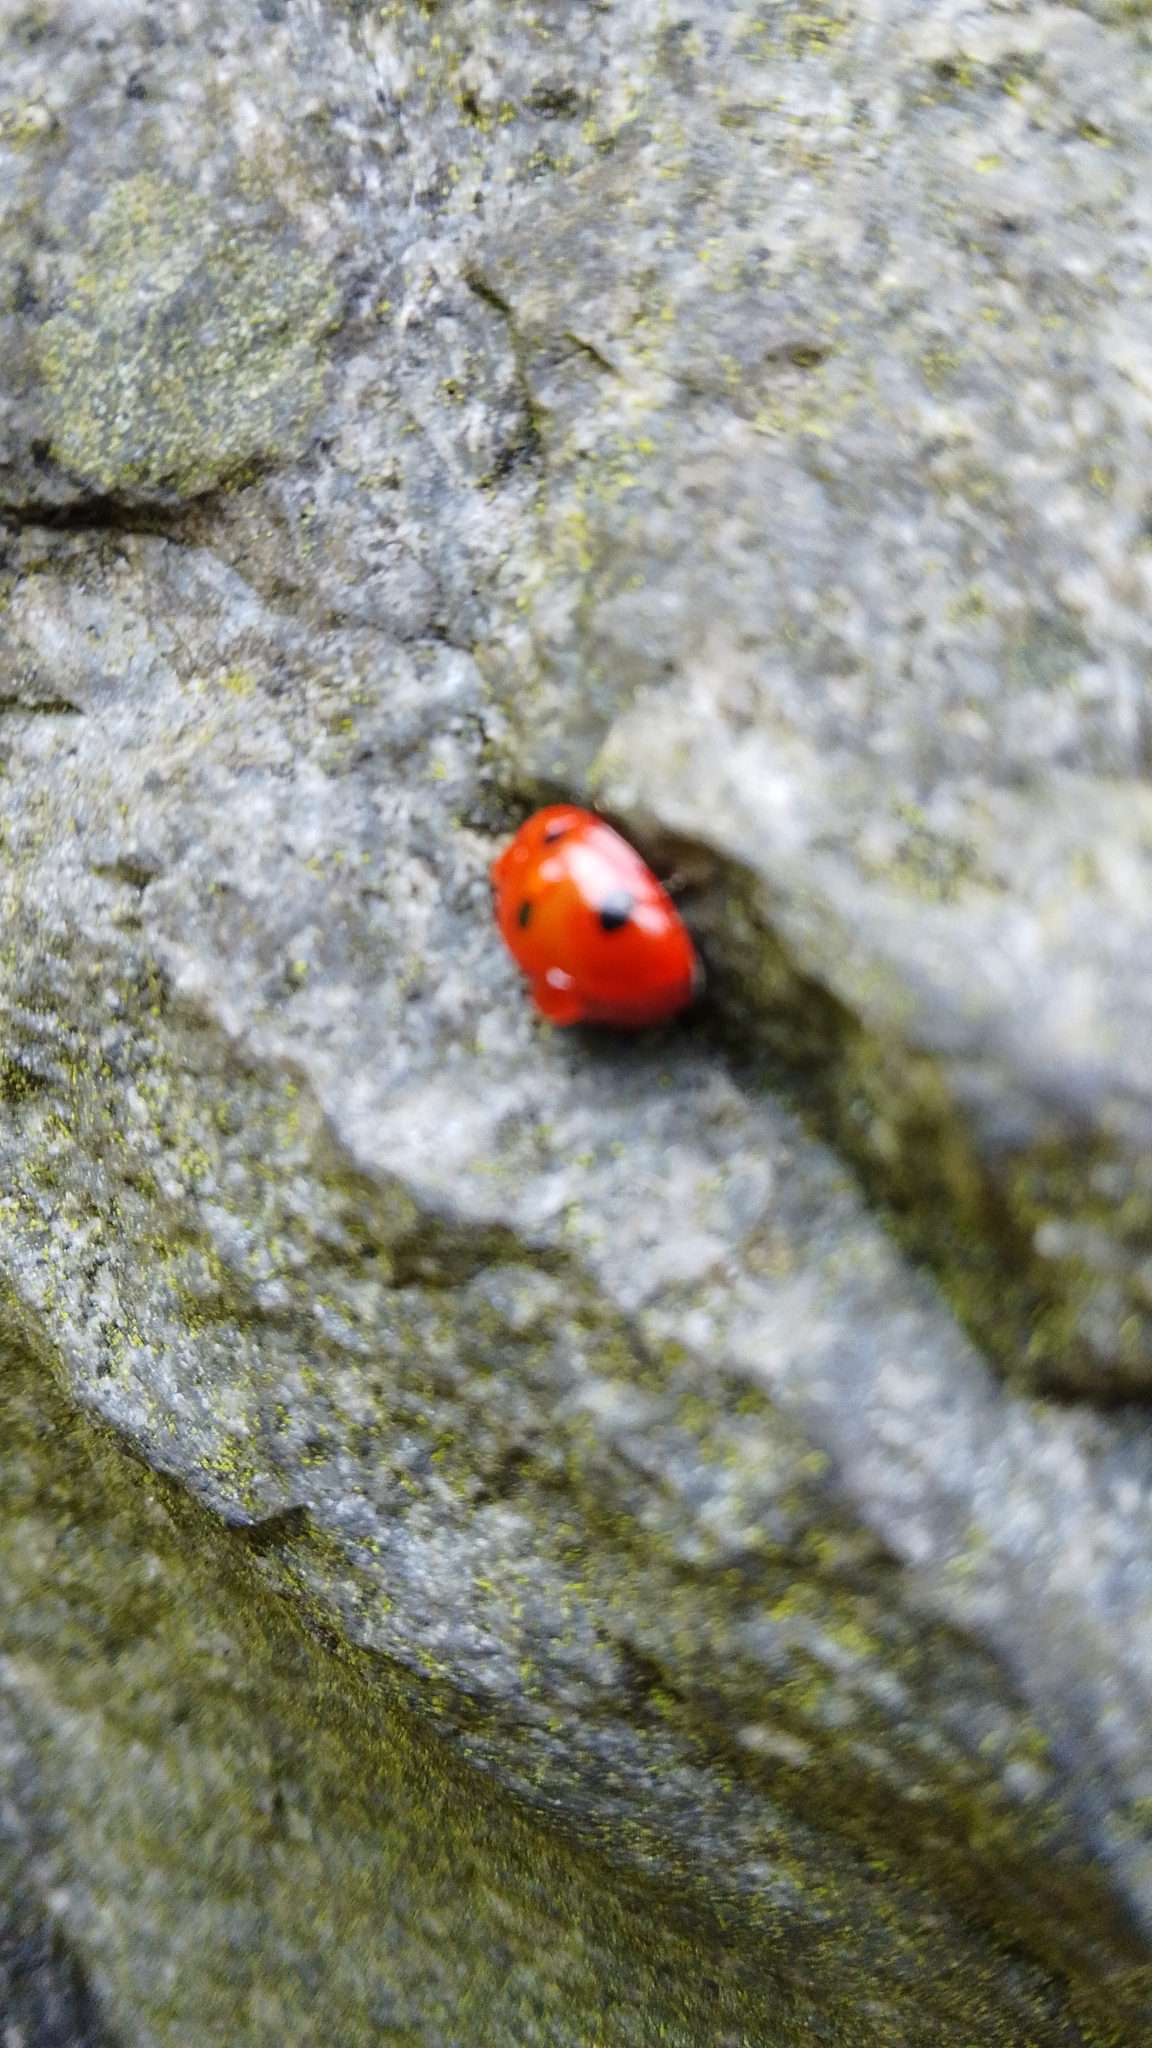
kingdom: Animalia
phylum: Arthropoda
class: Insecta
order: Coleoptera
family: Coccinellidae
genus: Coccinella
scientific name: Coccinella septempunctata
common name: Sevenspotted lady beetle
